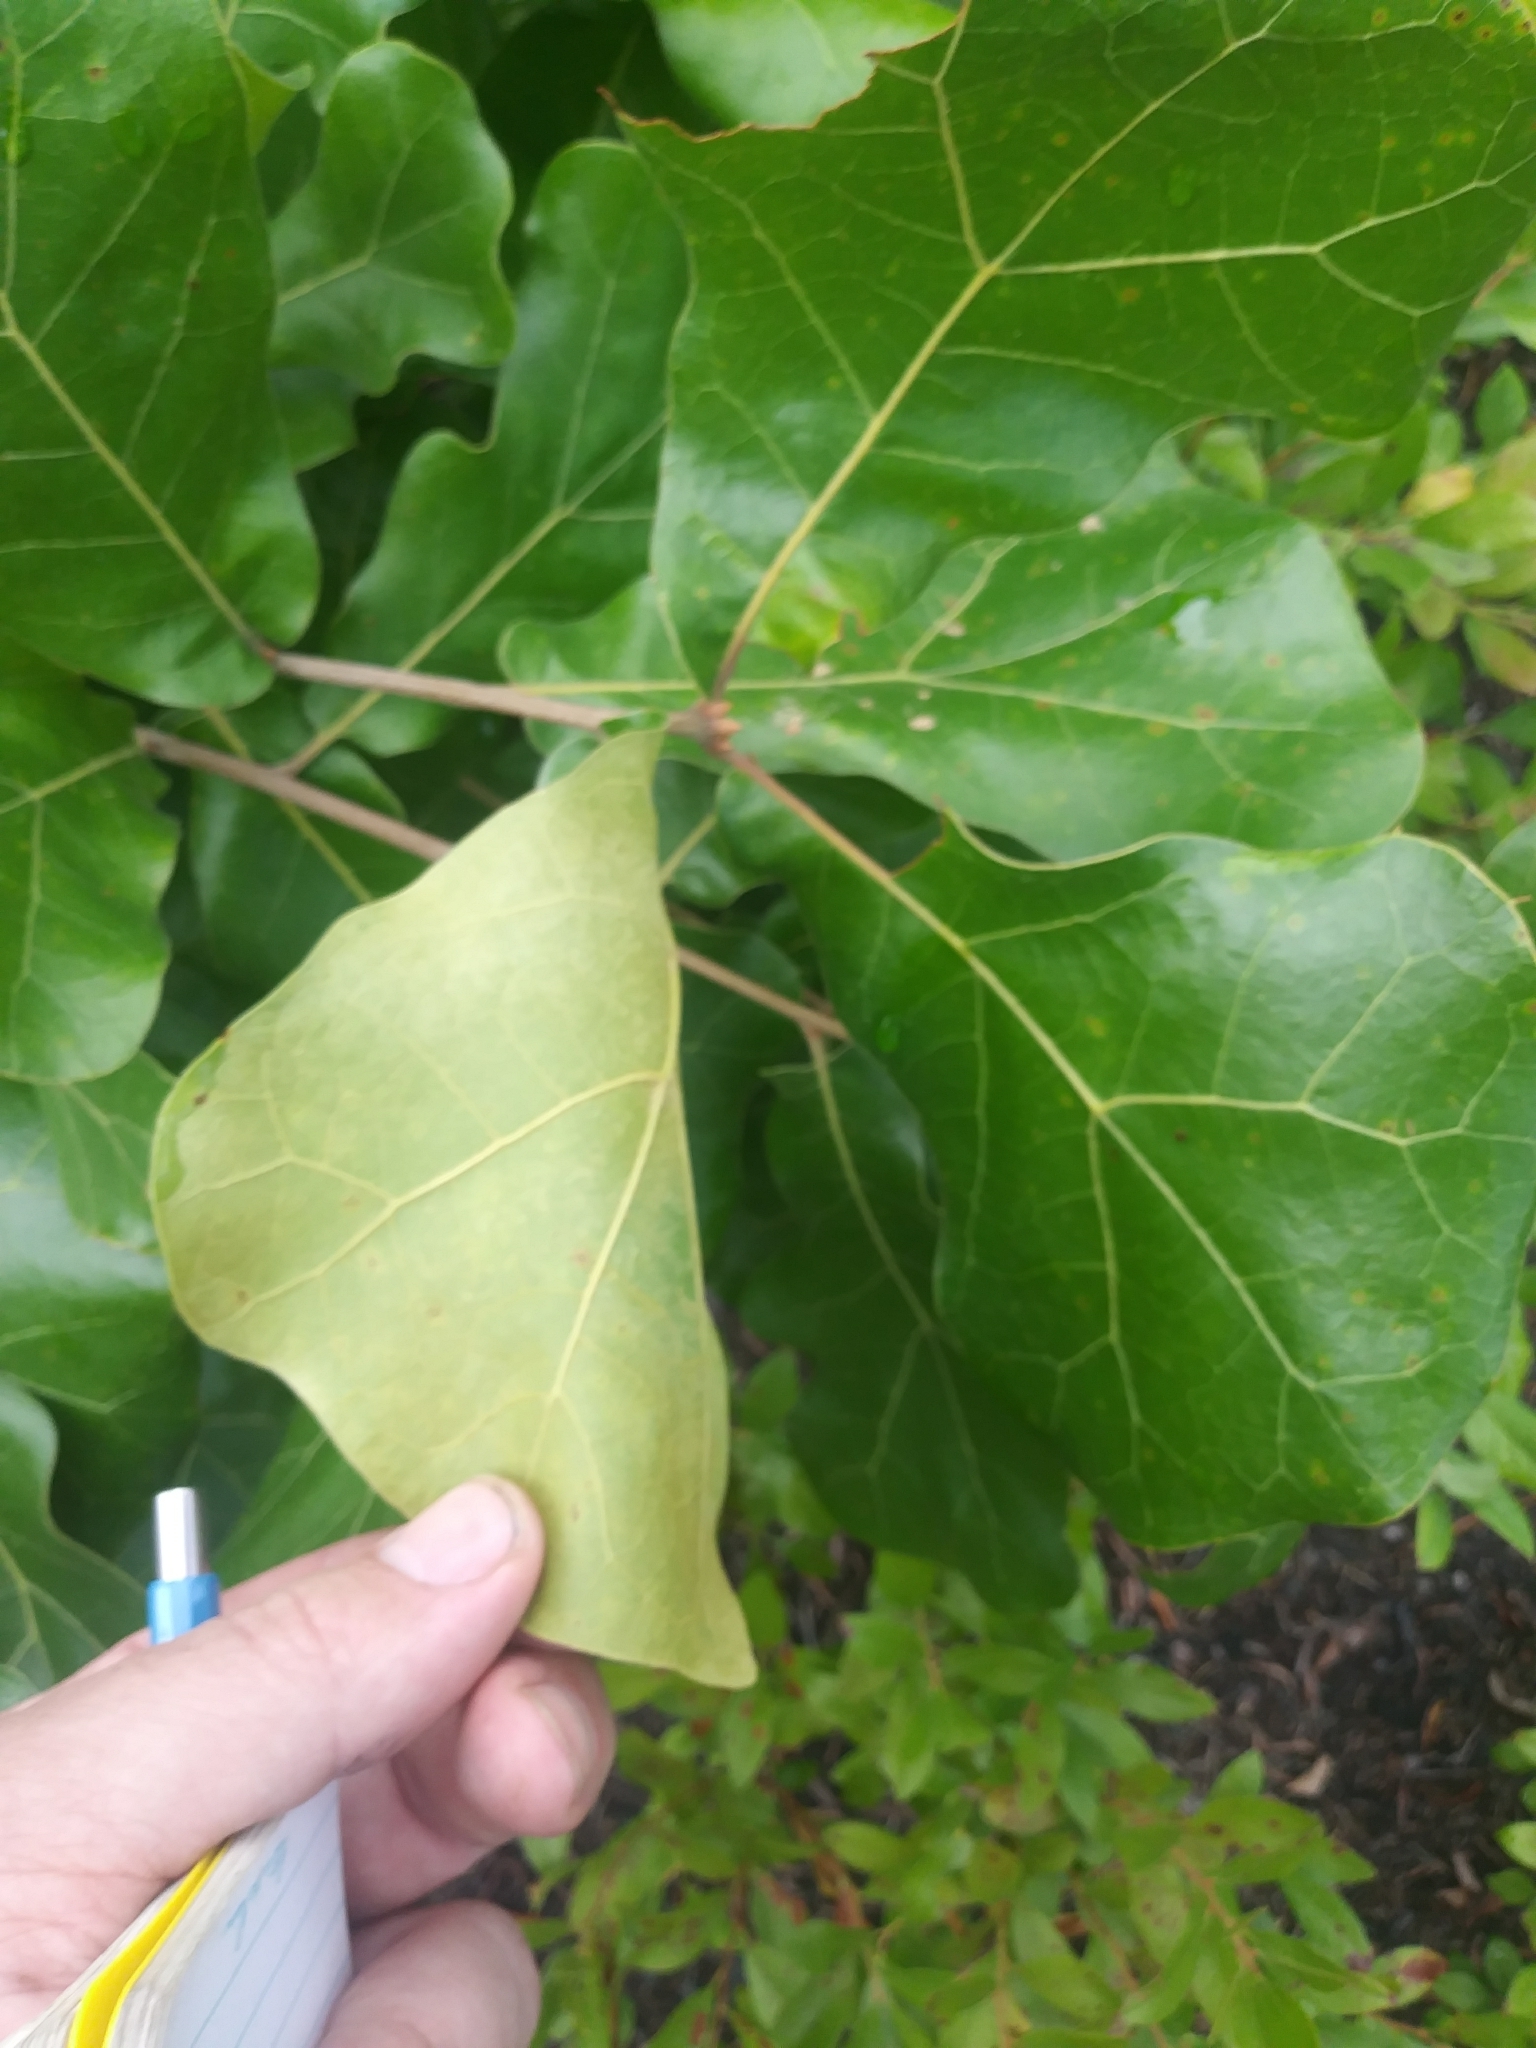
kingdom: Plantae
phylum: Tracheophyta
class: Magnoliopsida
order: Fagales
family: Fagaceae
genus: Quercus
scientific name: Quercus marilandica
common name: Blackjack oak
